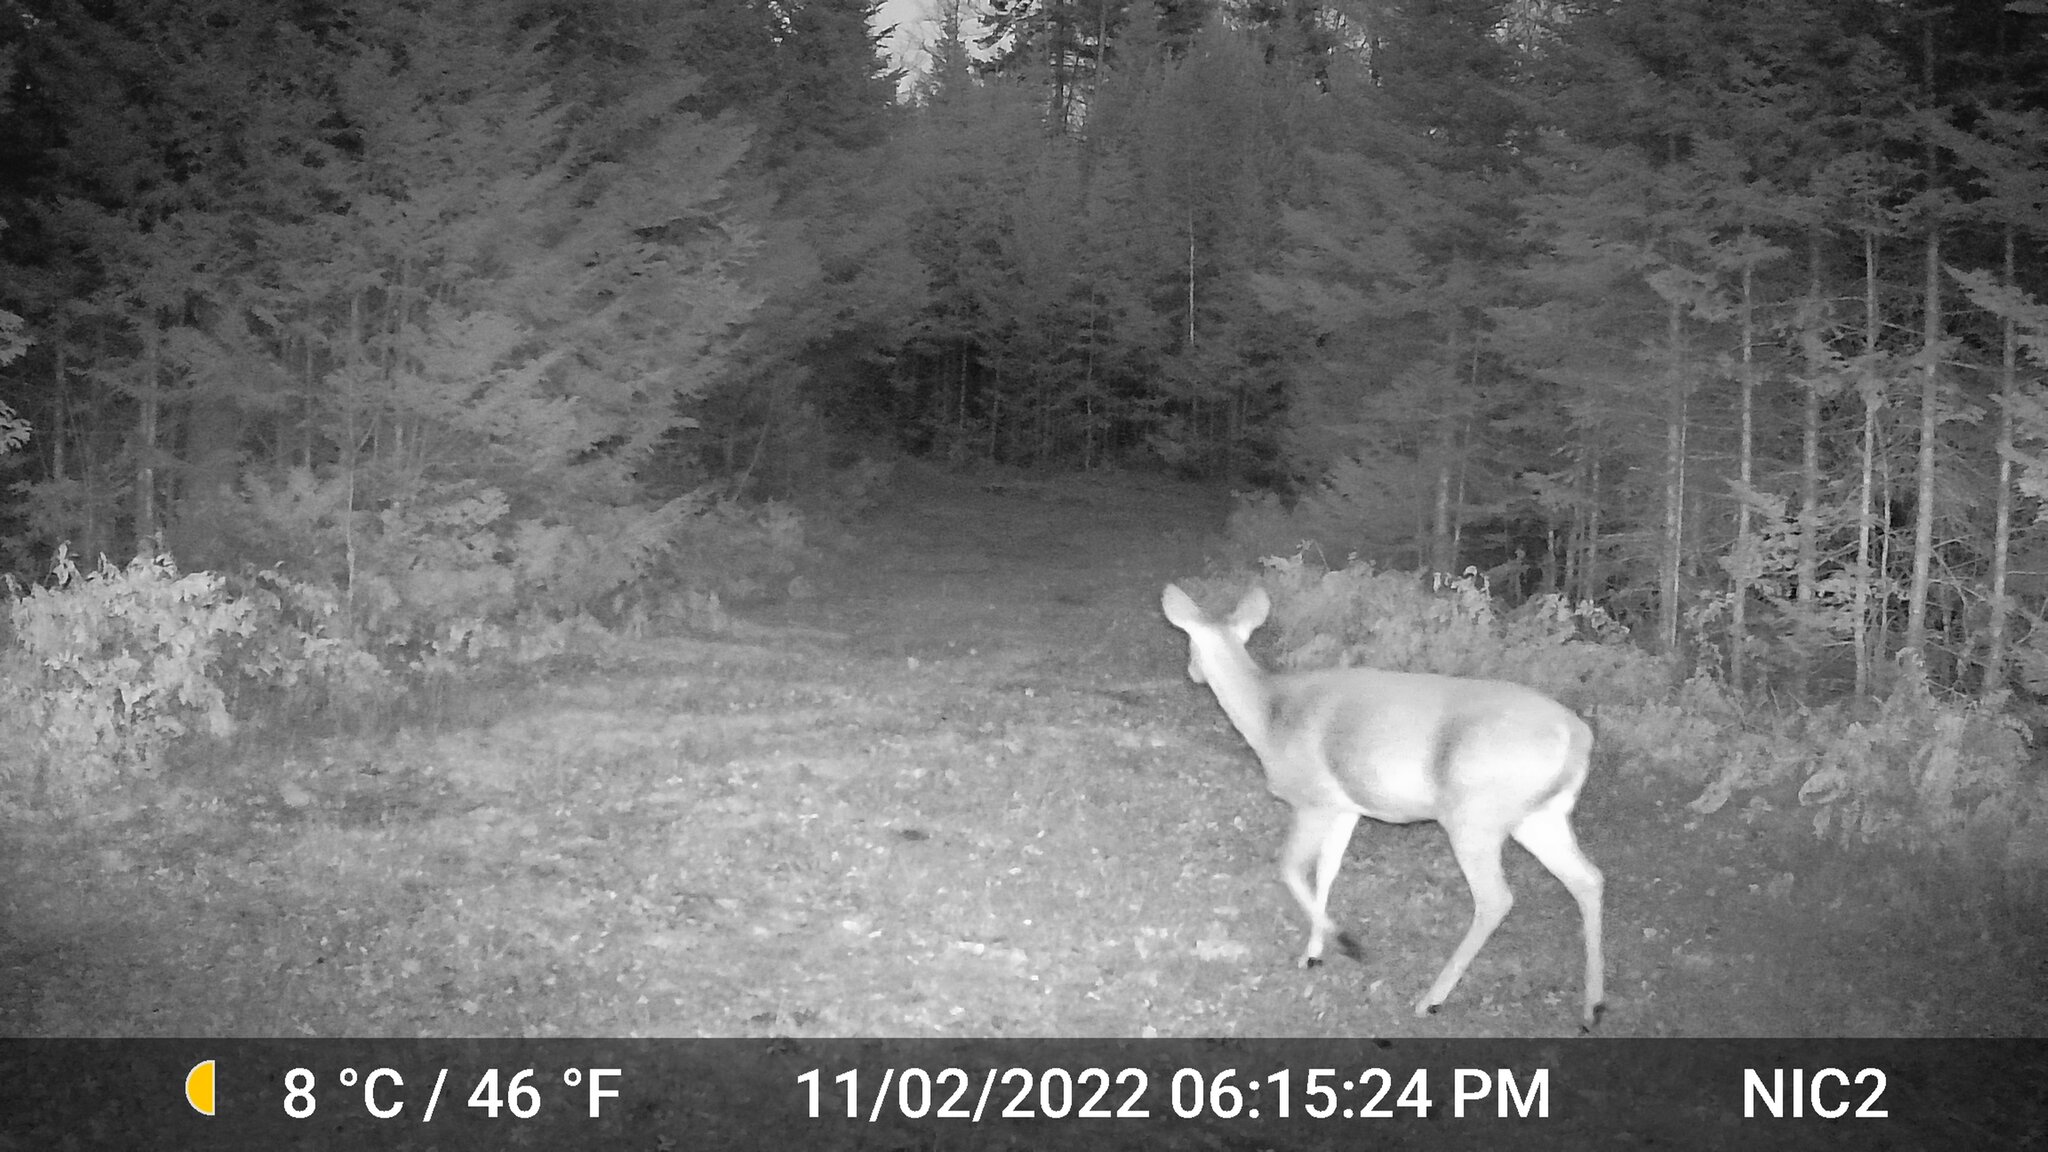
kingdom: Animalia
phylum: Chordata
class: Mammalia
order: Artiodactyla
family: Cervidae
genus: Odocoileus
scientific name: Odocoileus virginianus
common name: White-tailed deer
